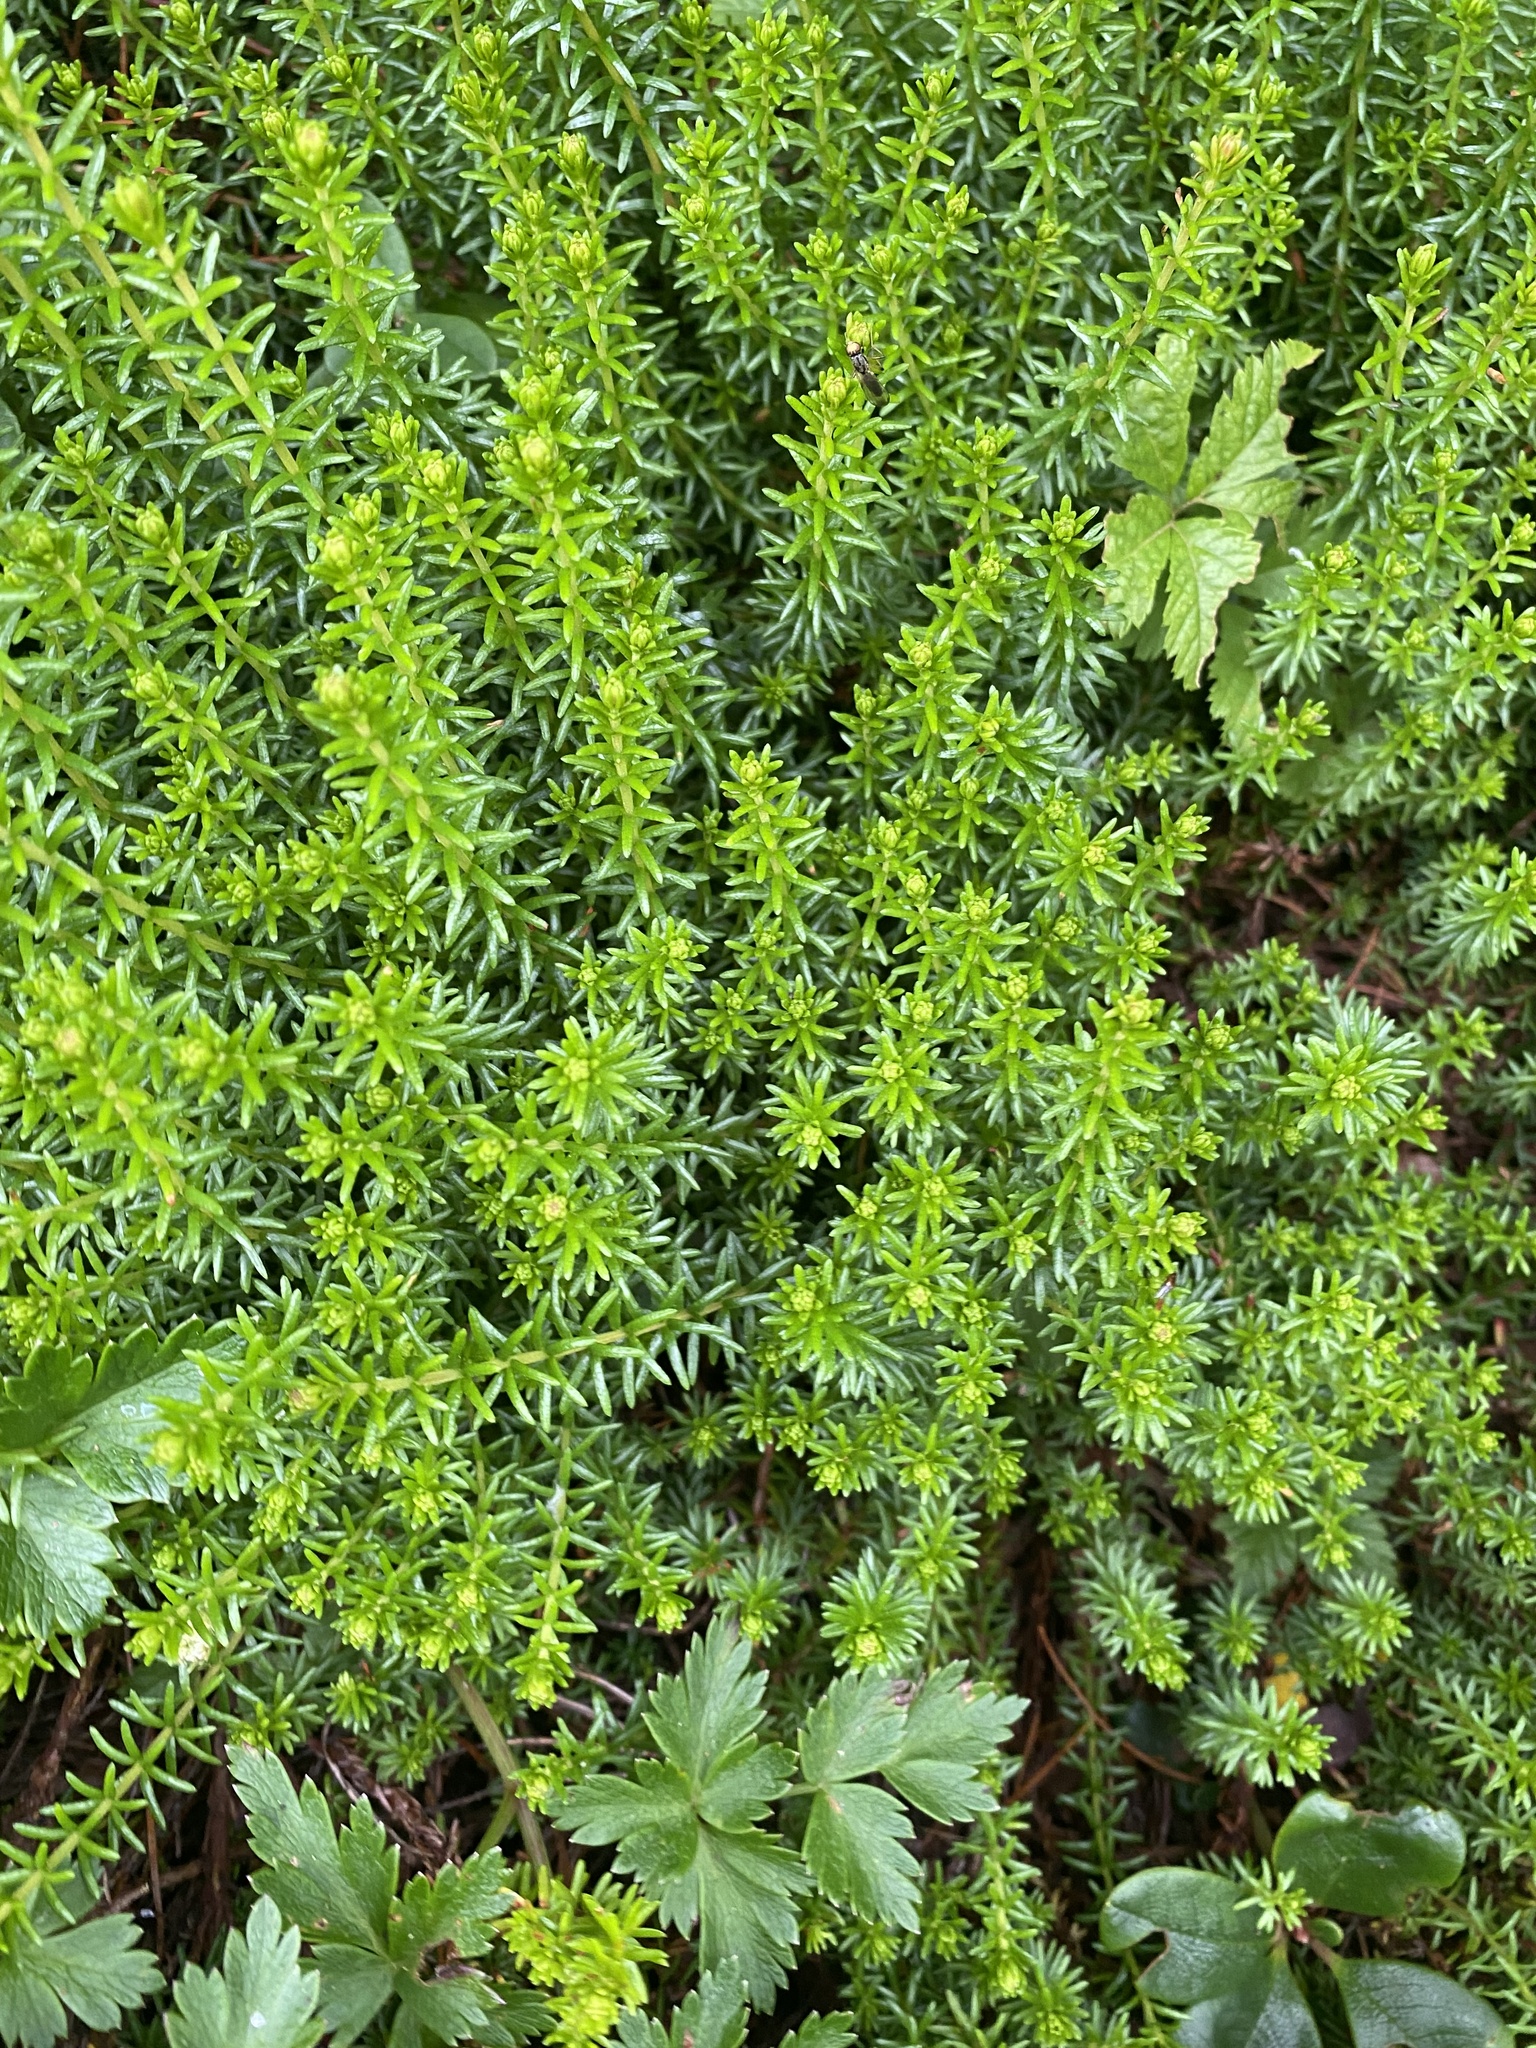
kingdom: Plantae
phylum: Tracheophyta
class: Magnoliopsida
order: Ericales
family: Ericaceae
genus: Empetrum
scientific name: Empetrum nigrum
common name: Black crowberry
